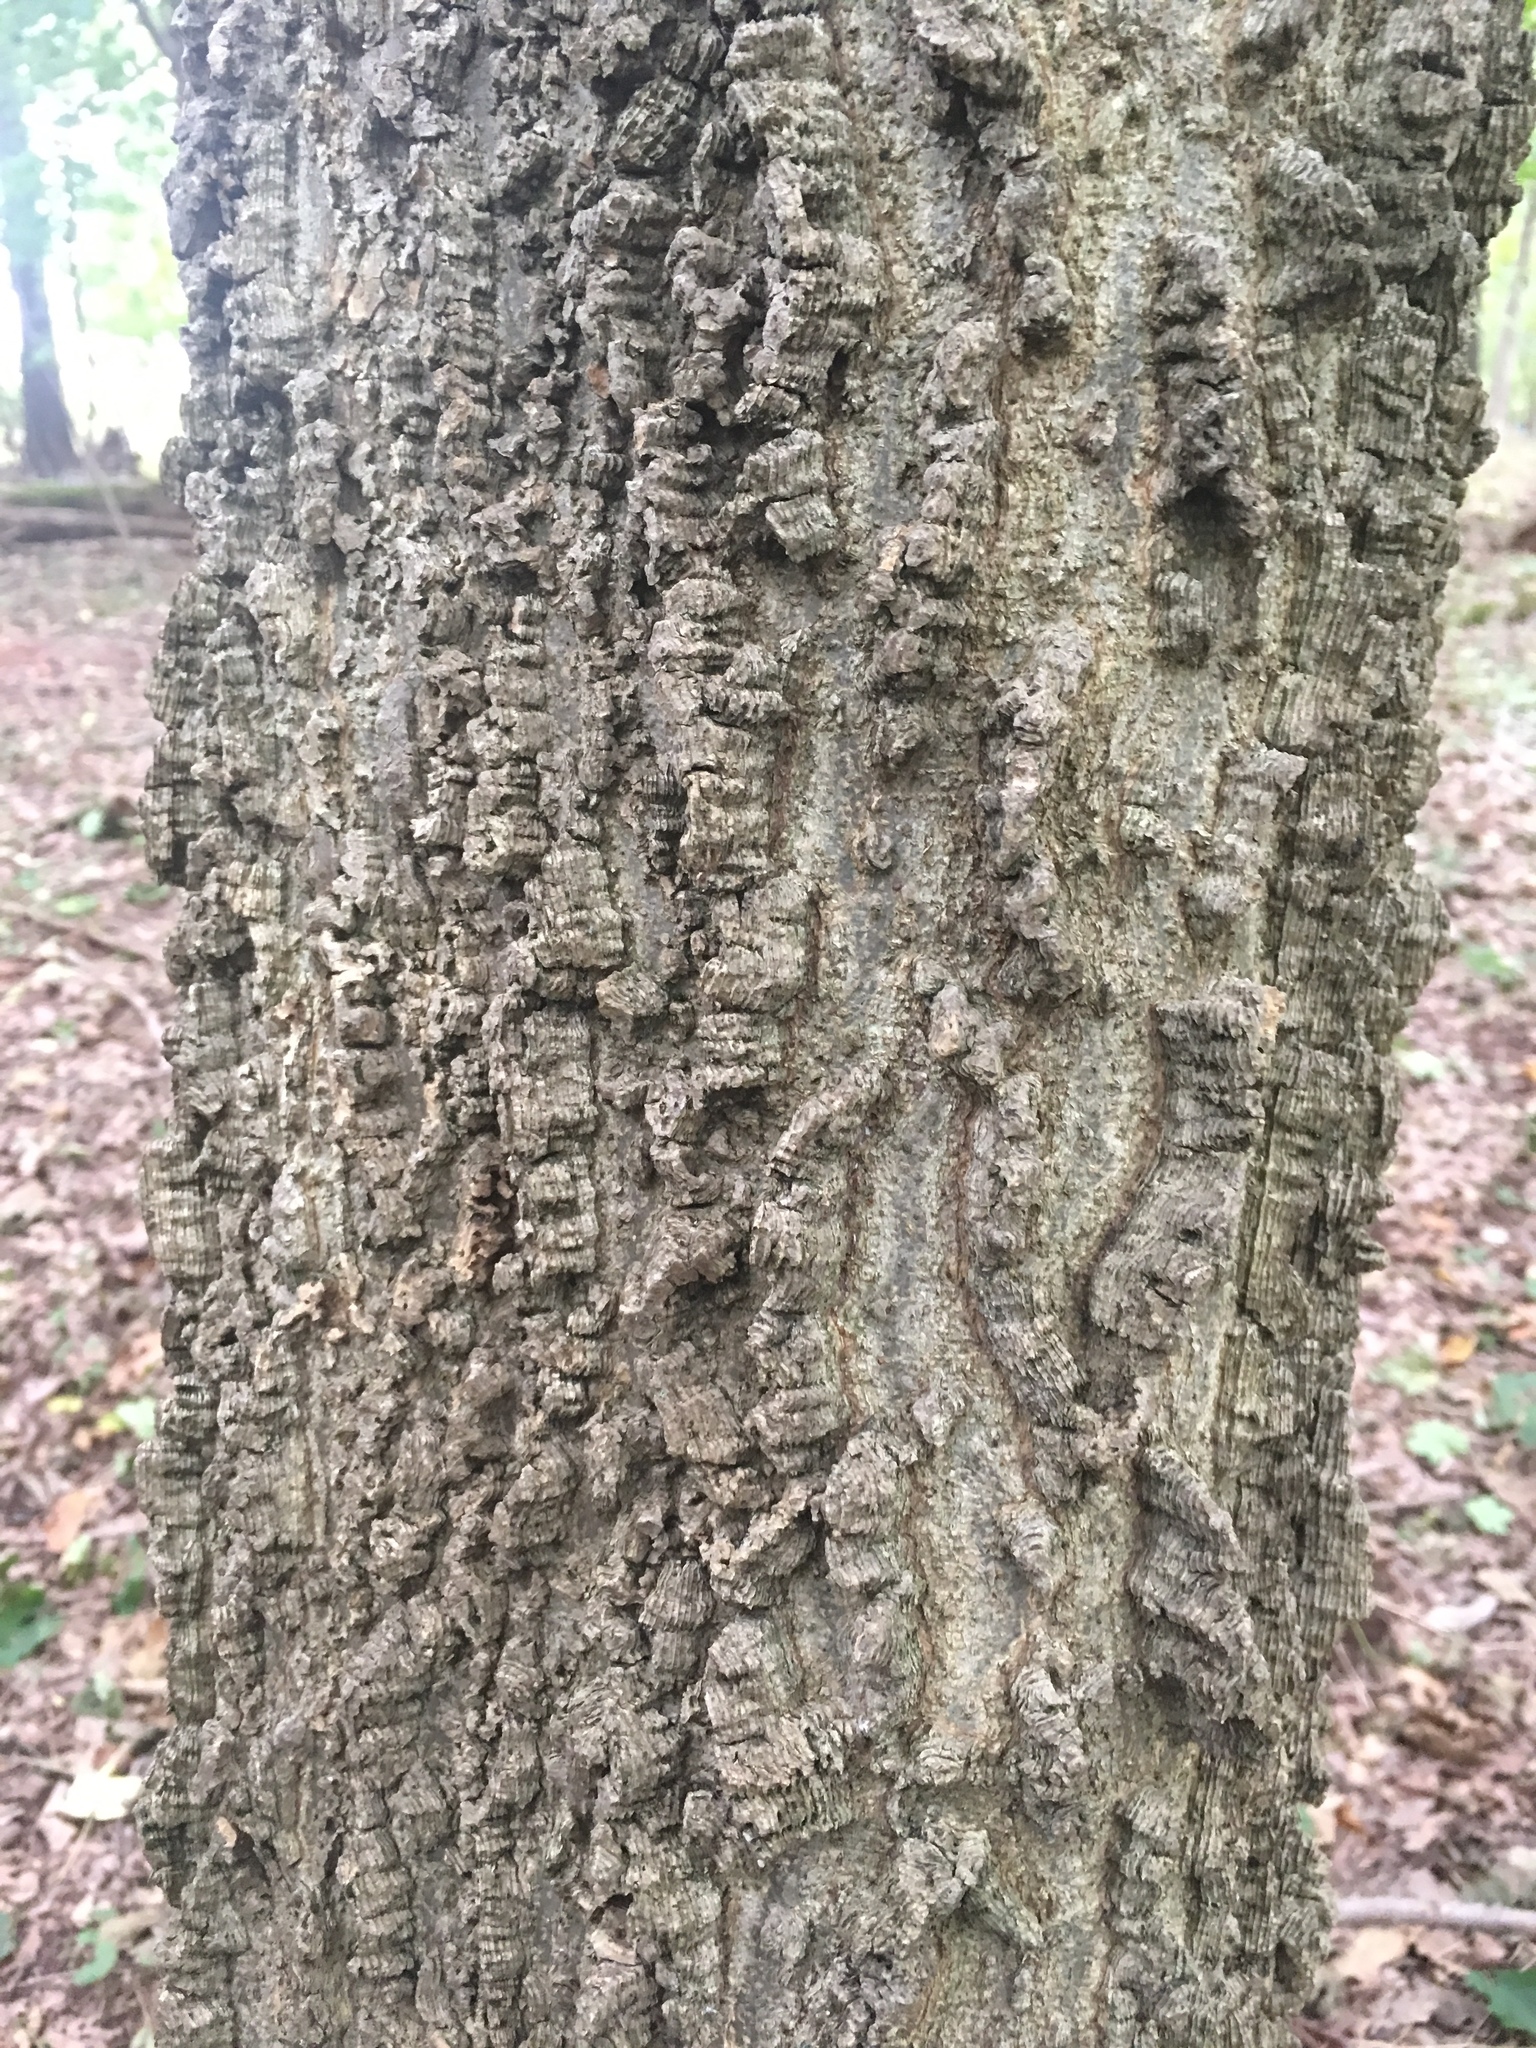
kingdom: Plantae
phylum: Tracheophyta
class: Magnoliopsida
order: Rosales
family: Cannabaceae
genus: Celtis
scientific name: Celtis occidentalis
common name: Common hackberry
